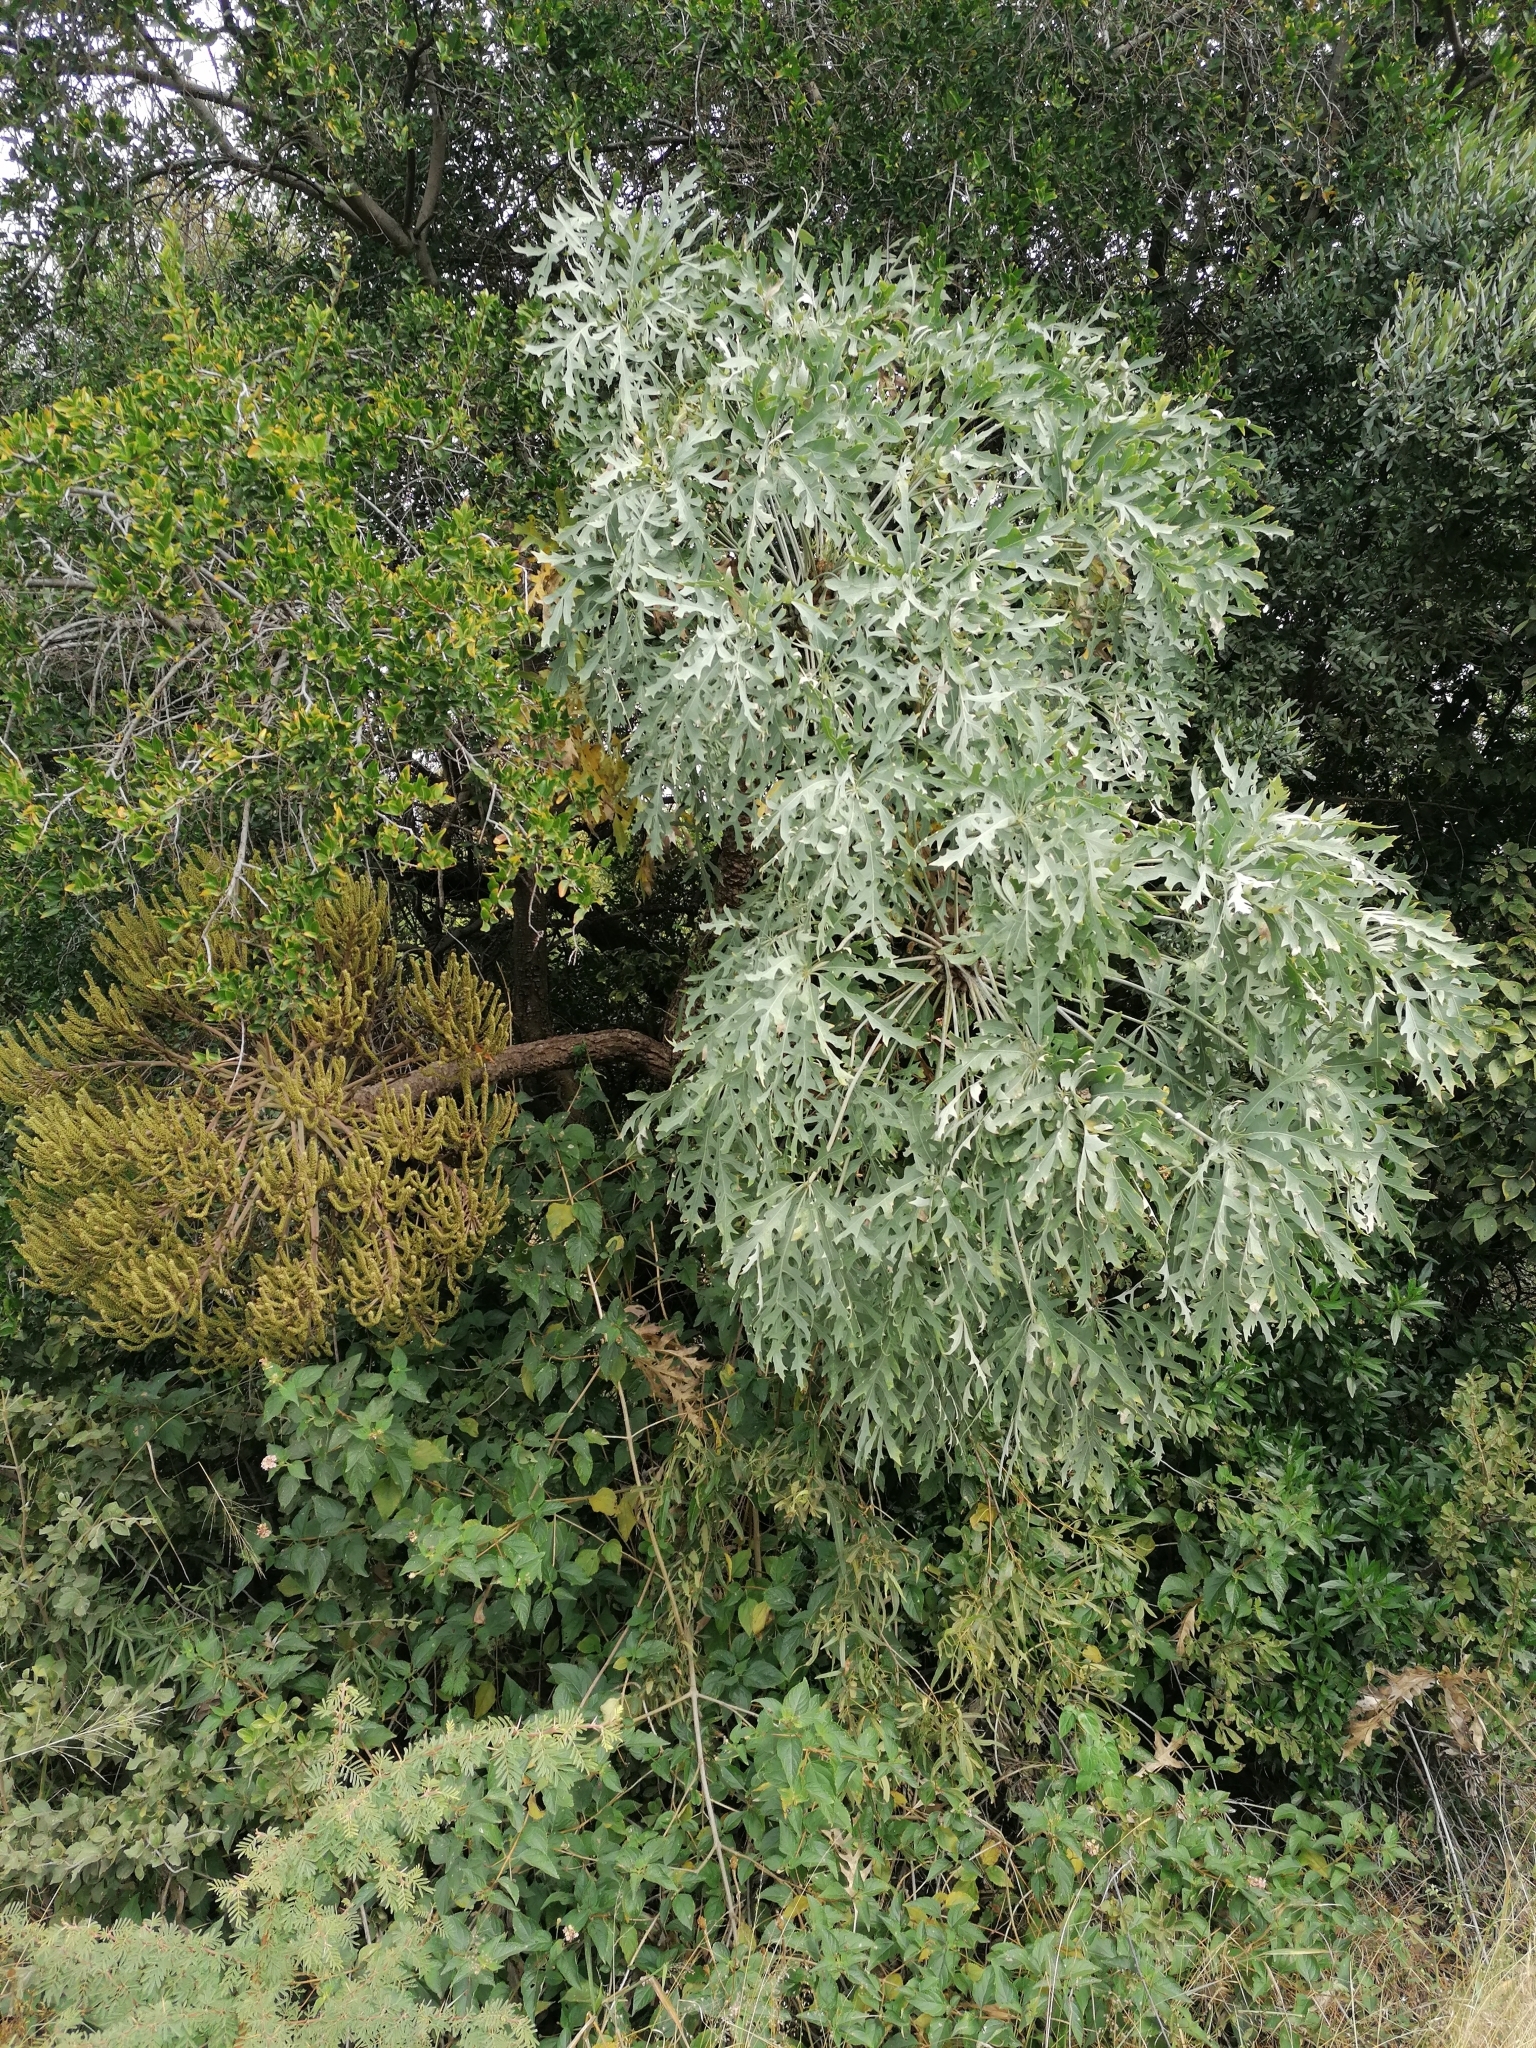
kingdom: Plantae
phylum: Tracheophyta
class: Magnoliopsida
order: Apiales
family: Araliaceae
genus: Cussonia
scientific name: Cussonia paniculata
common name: Cabbagetree
